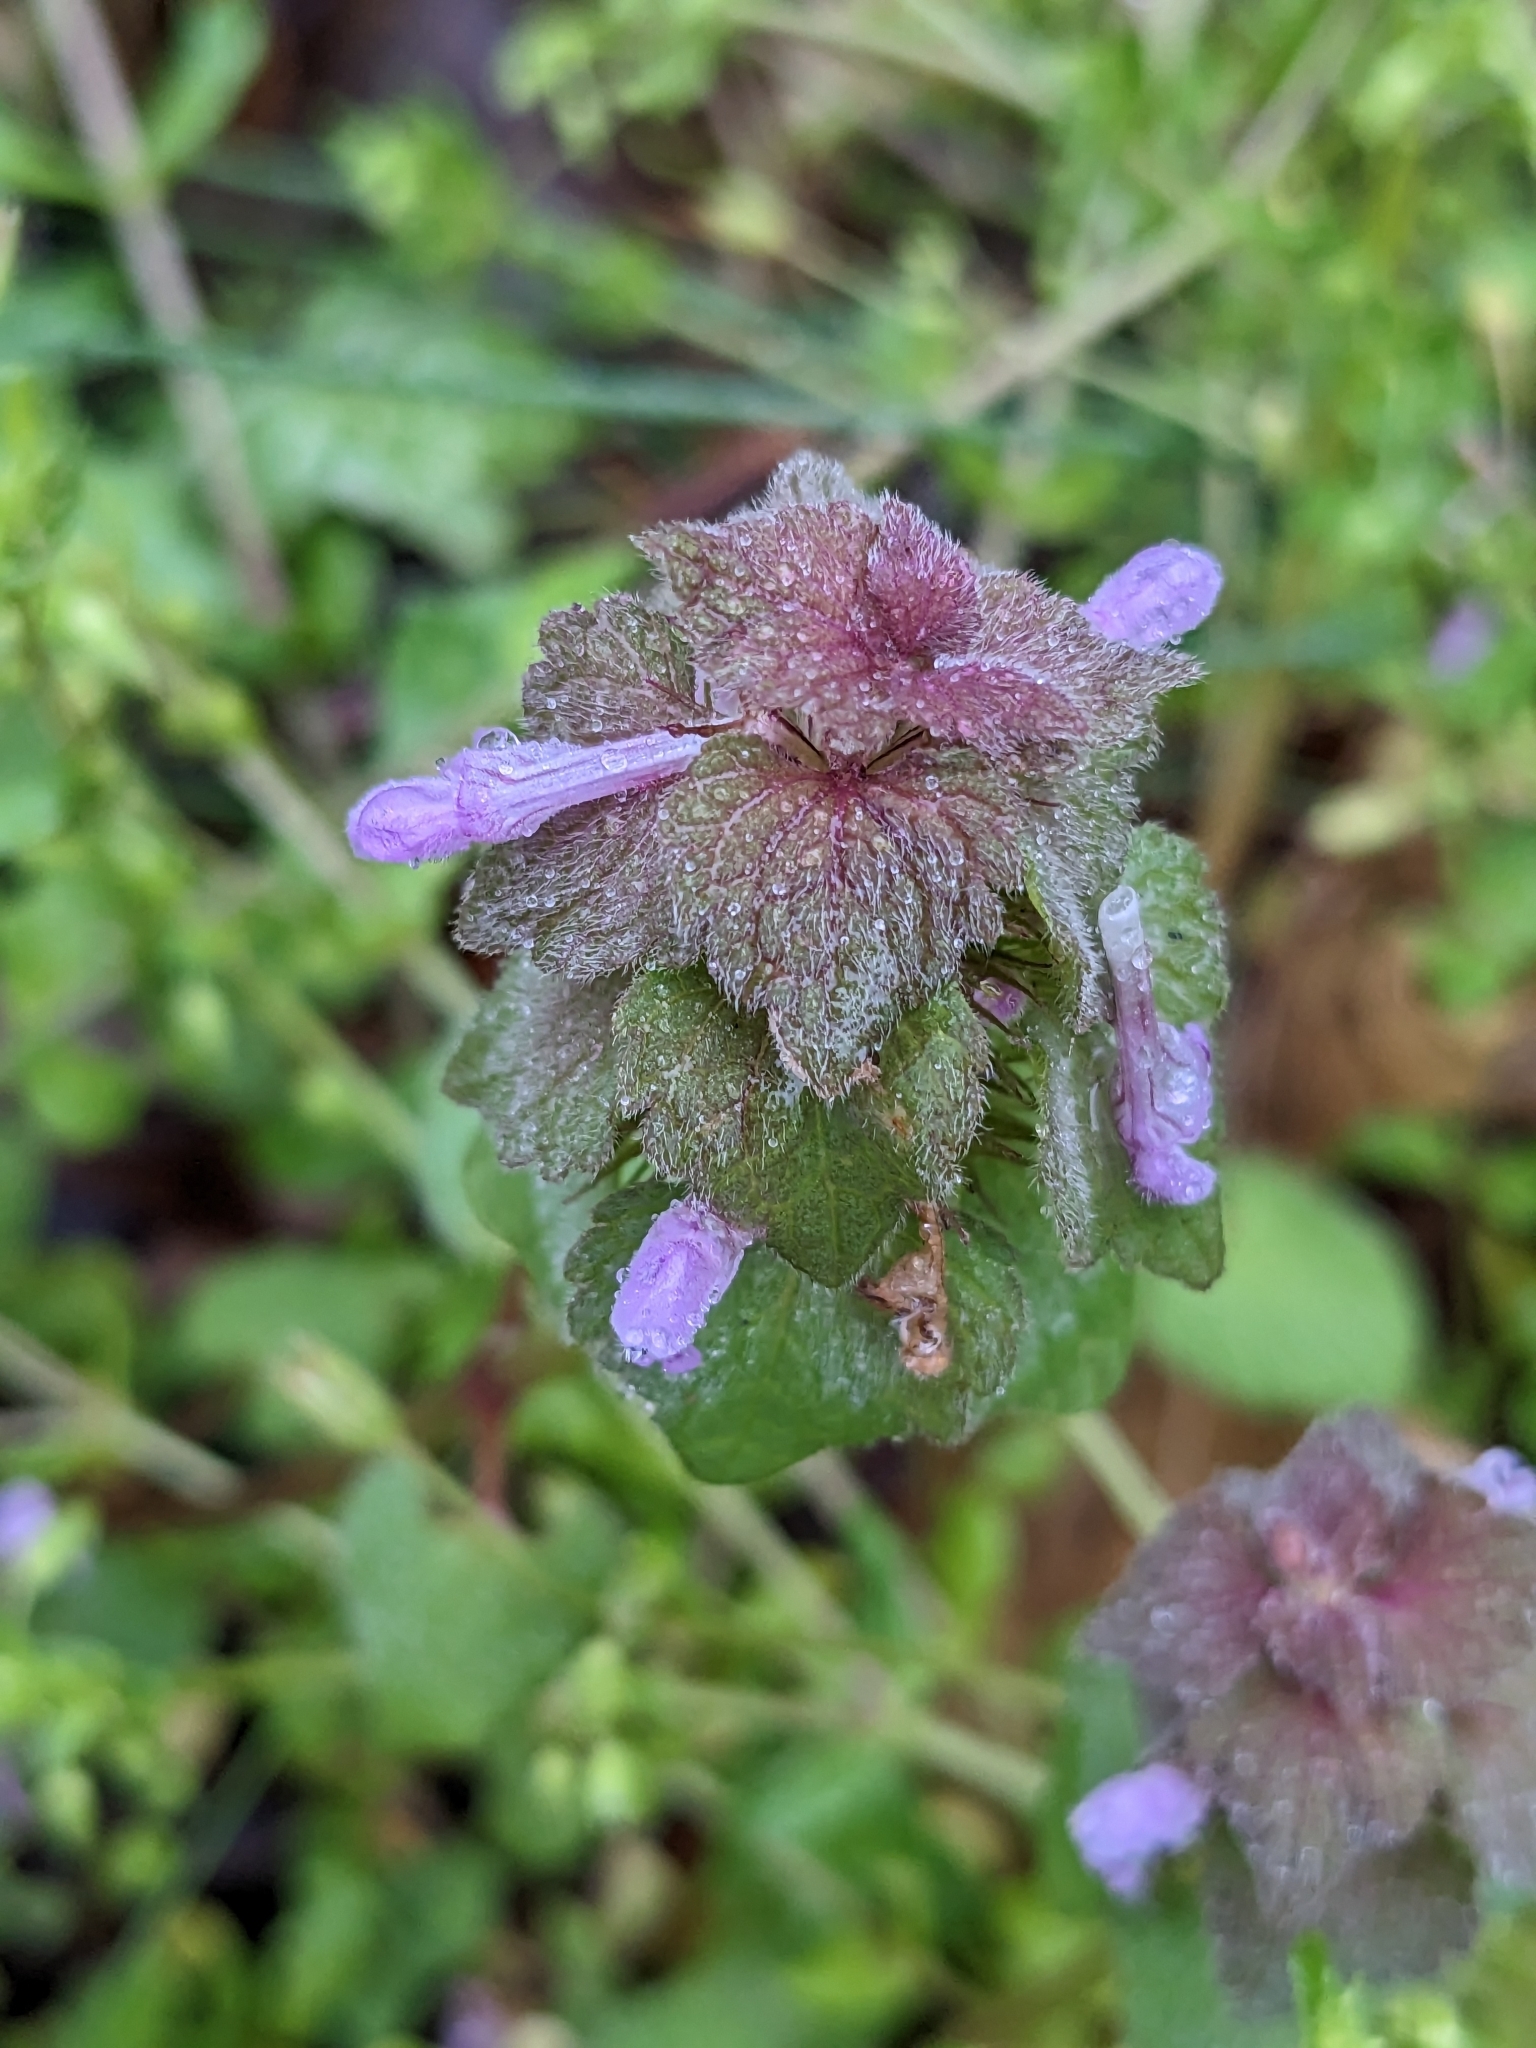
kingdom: Plantae
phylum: Tracheophyta
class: Magnoliopsida
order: Lamiales
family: Lamiaceae
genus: Lamium
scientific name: Lamium purpureum
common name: Red dead-nettle
